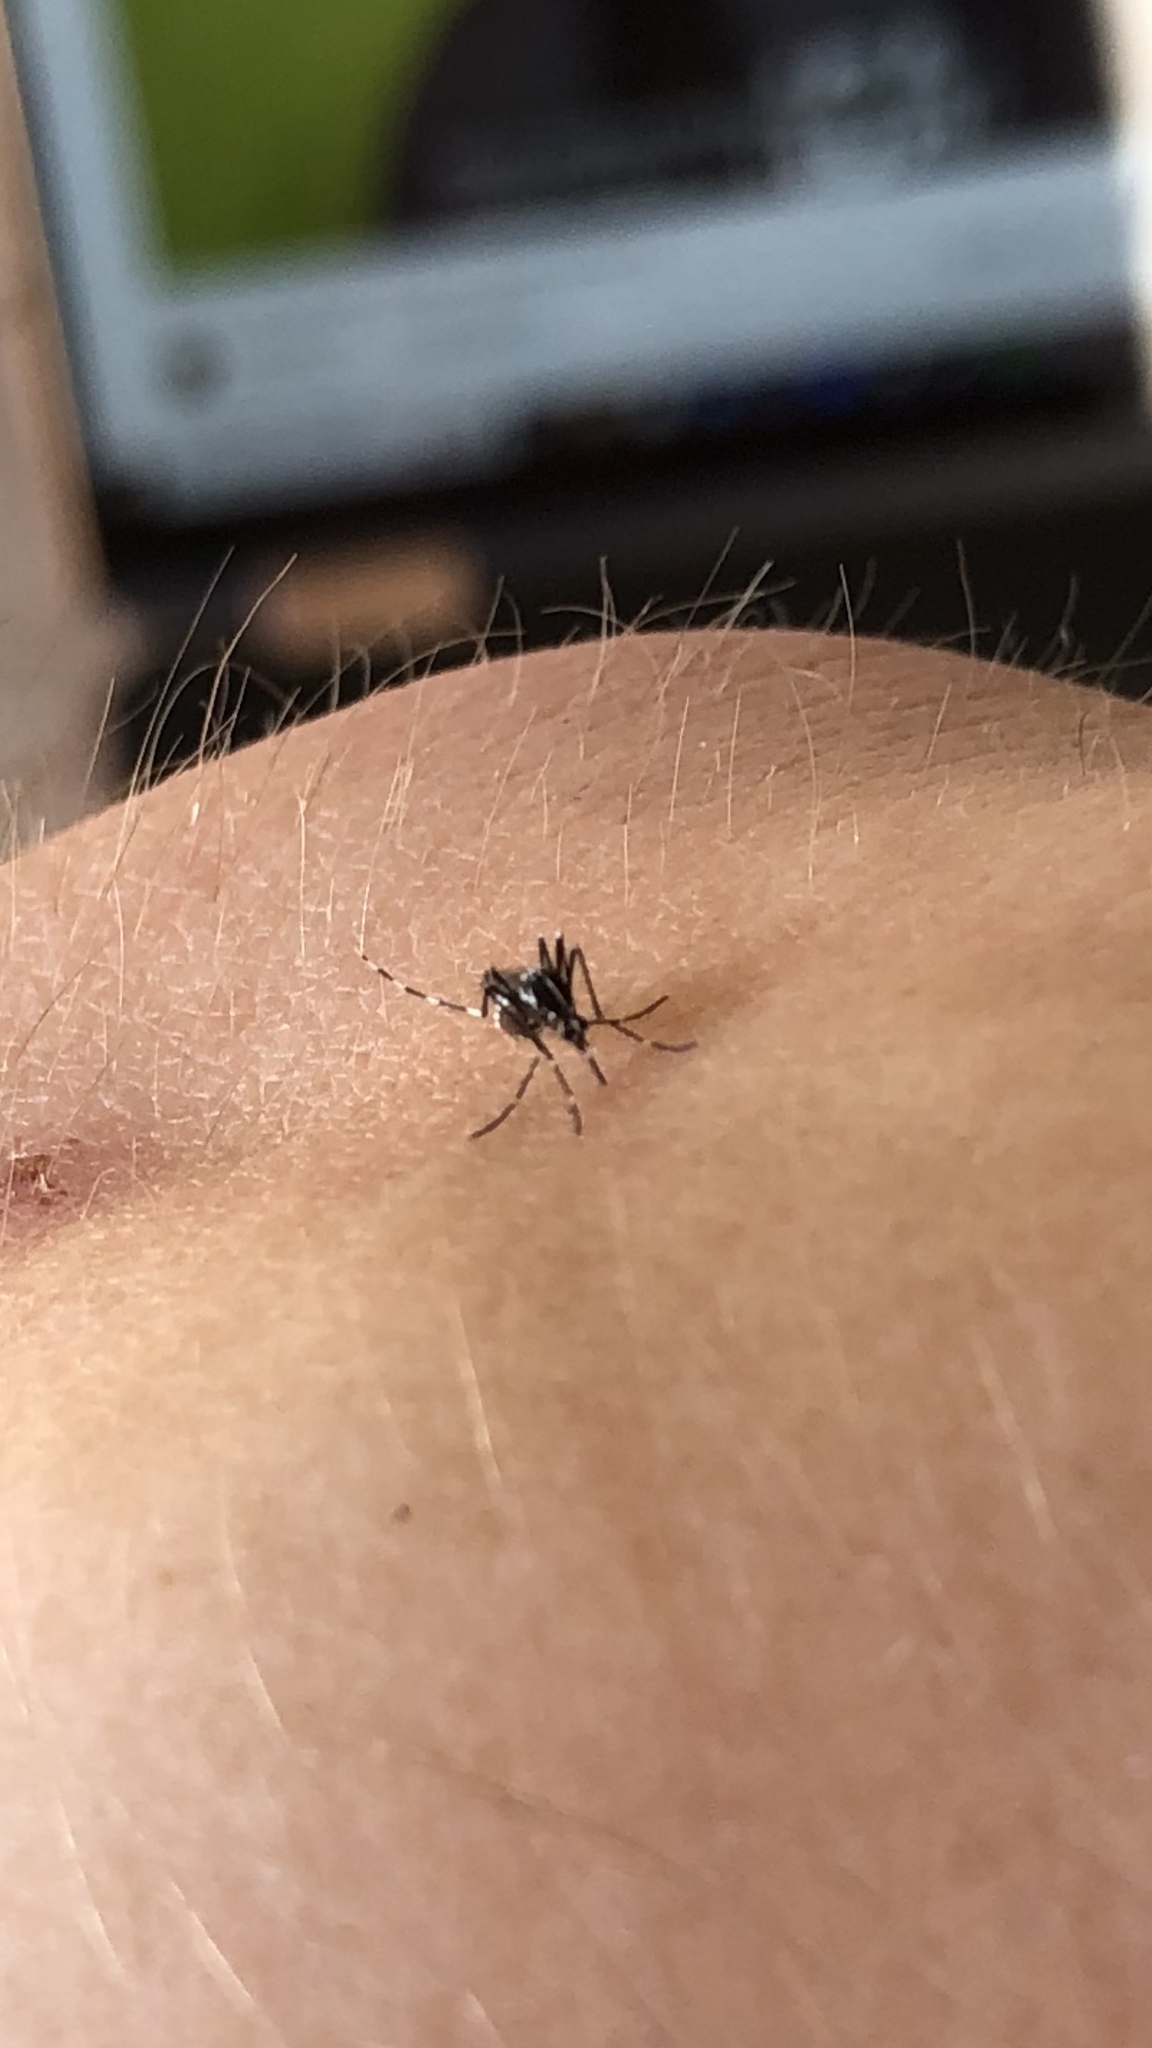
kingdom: Animalia
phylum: Arthropoda
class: Insecta
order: Diptera
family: Culicidae
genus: Aedes
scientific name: Aedes albopictus
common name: Tiger mosquito
